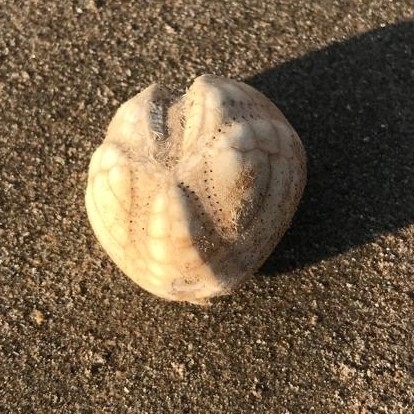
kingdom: Animalia
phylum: Echinodermata
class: Echinoidea
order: Spatangoida
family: Loveniidae
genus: Echinocardium
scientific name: Echinocardium cordatum
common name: Heart-urchin
